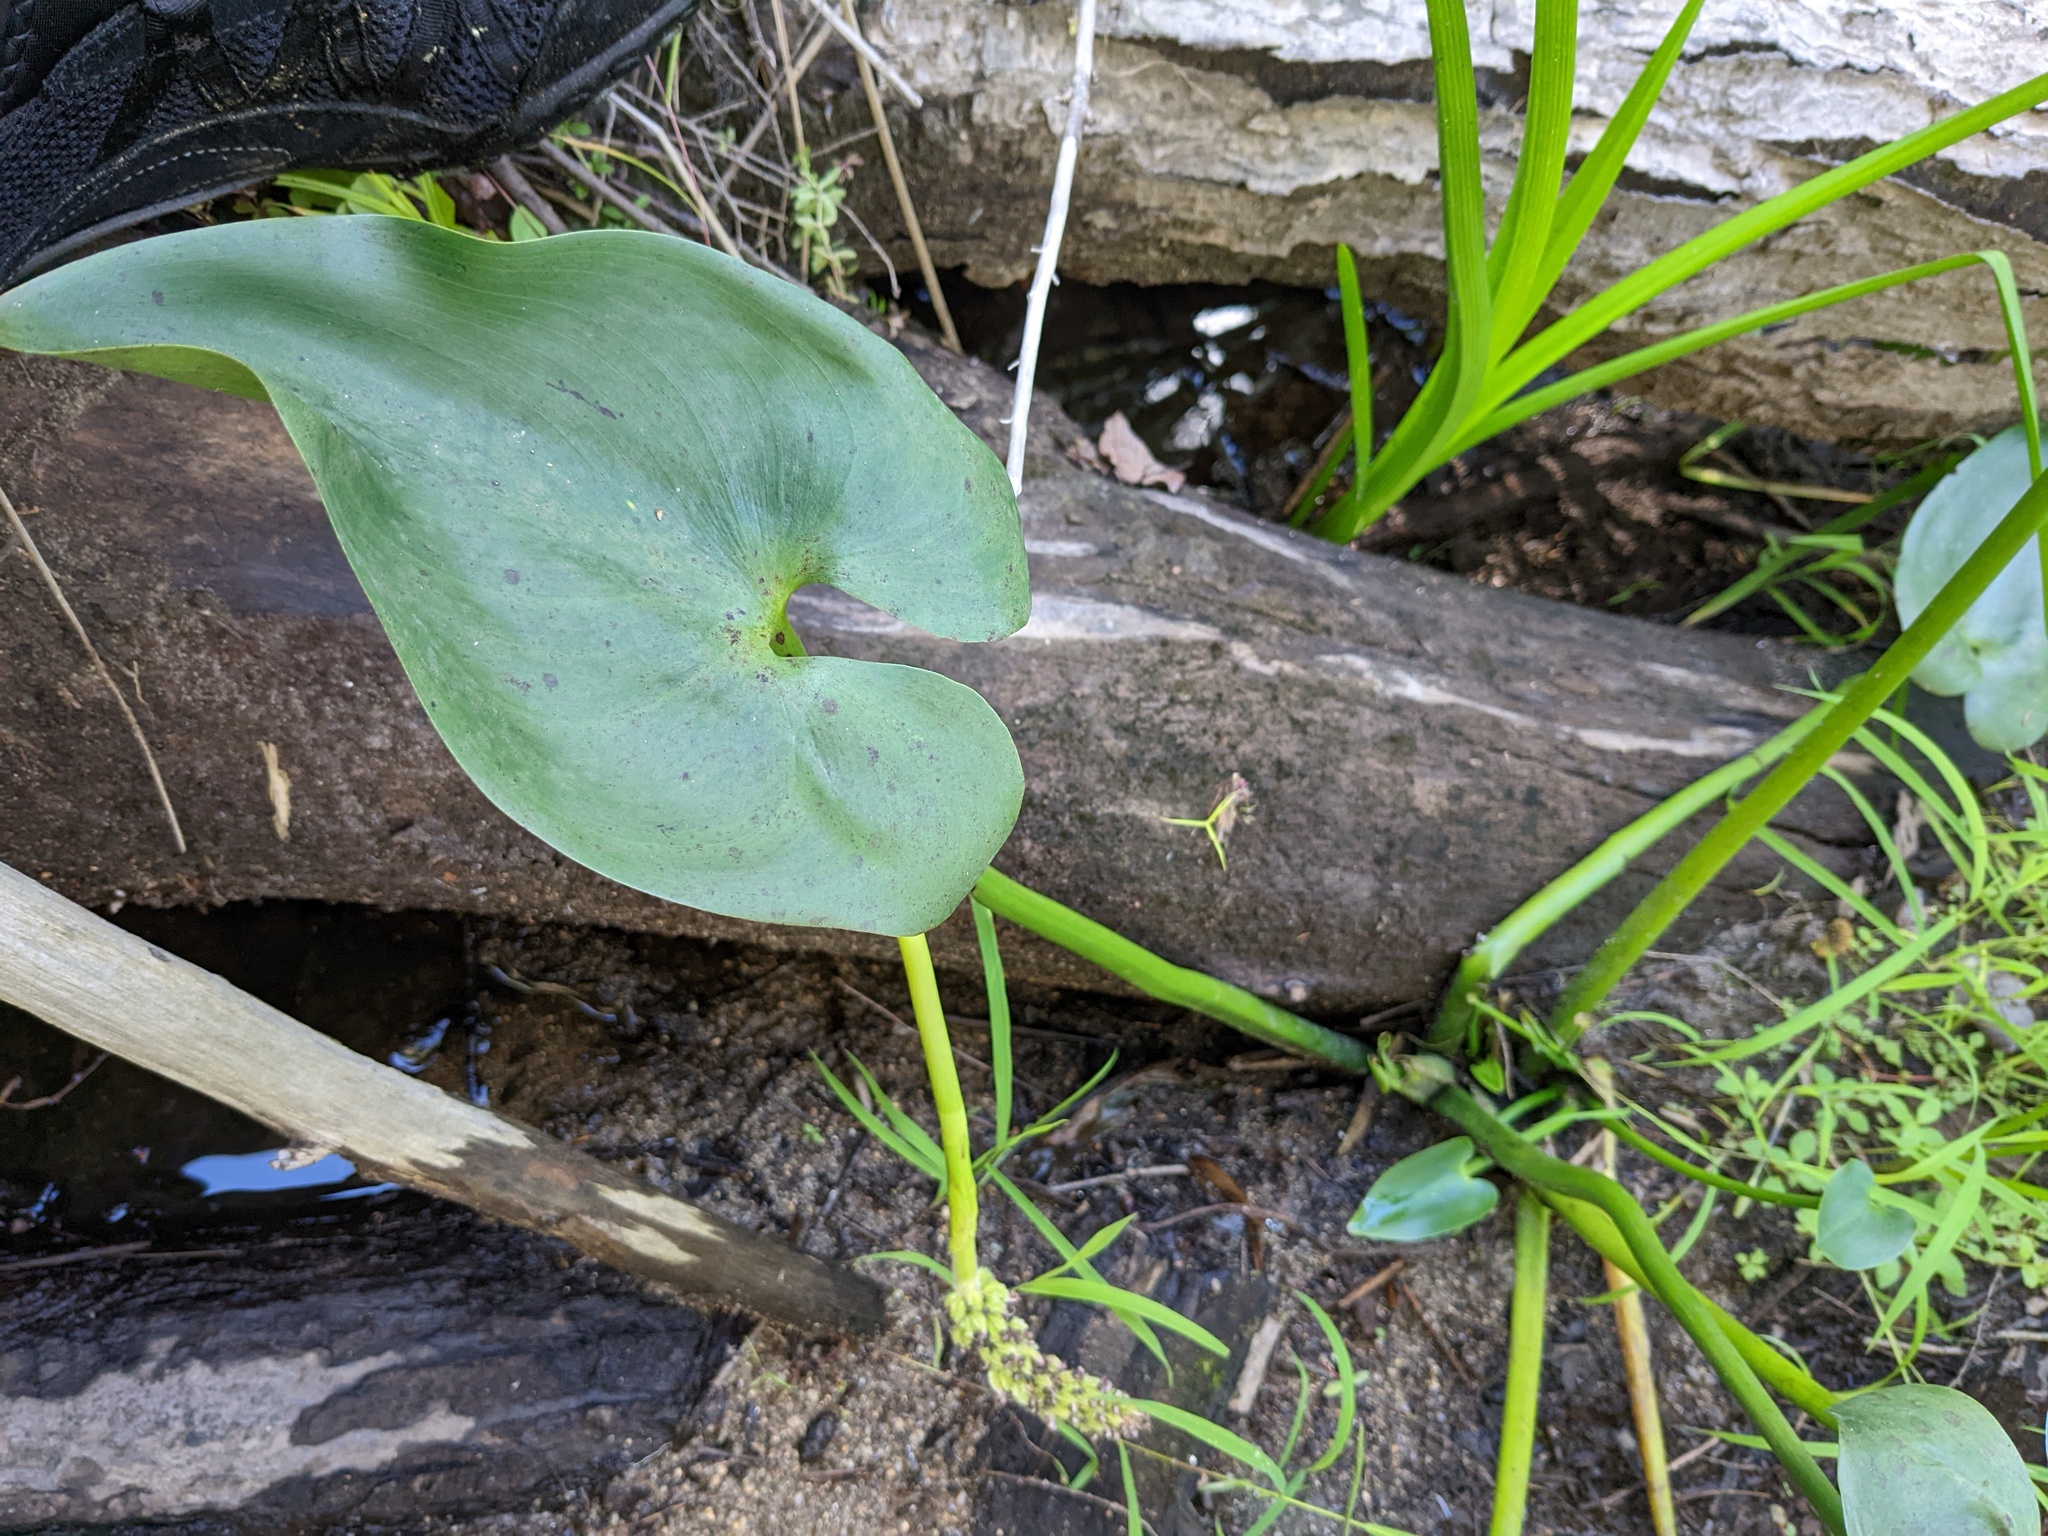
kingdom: Plantae
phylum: Tracheophyta
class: Liliopsida
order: Commelinales
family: Pontederiaceae
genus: Pontederia
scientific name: Pontederia cordata
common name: Pickerelweed
